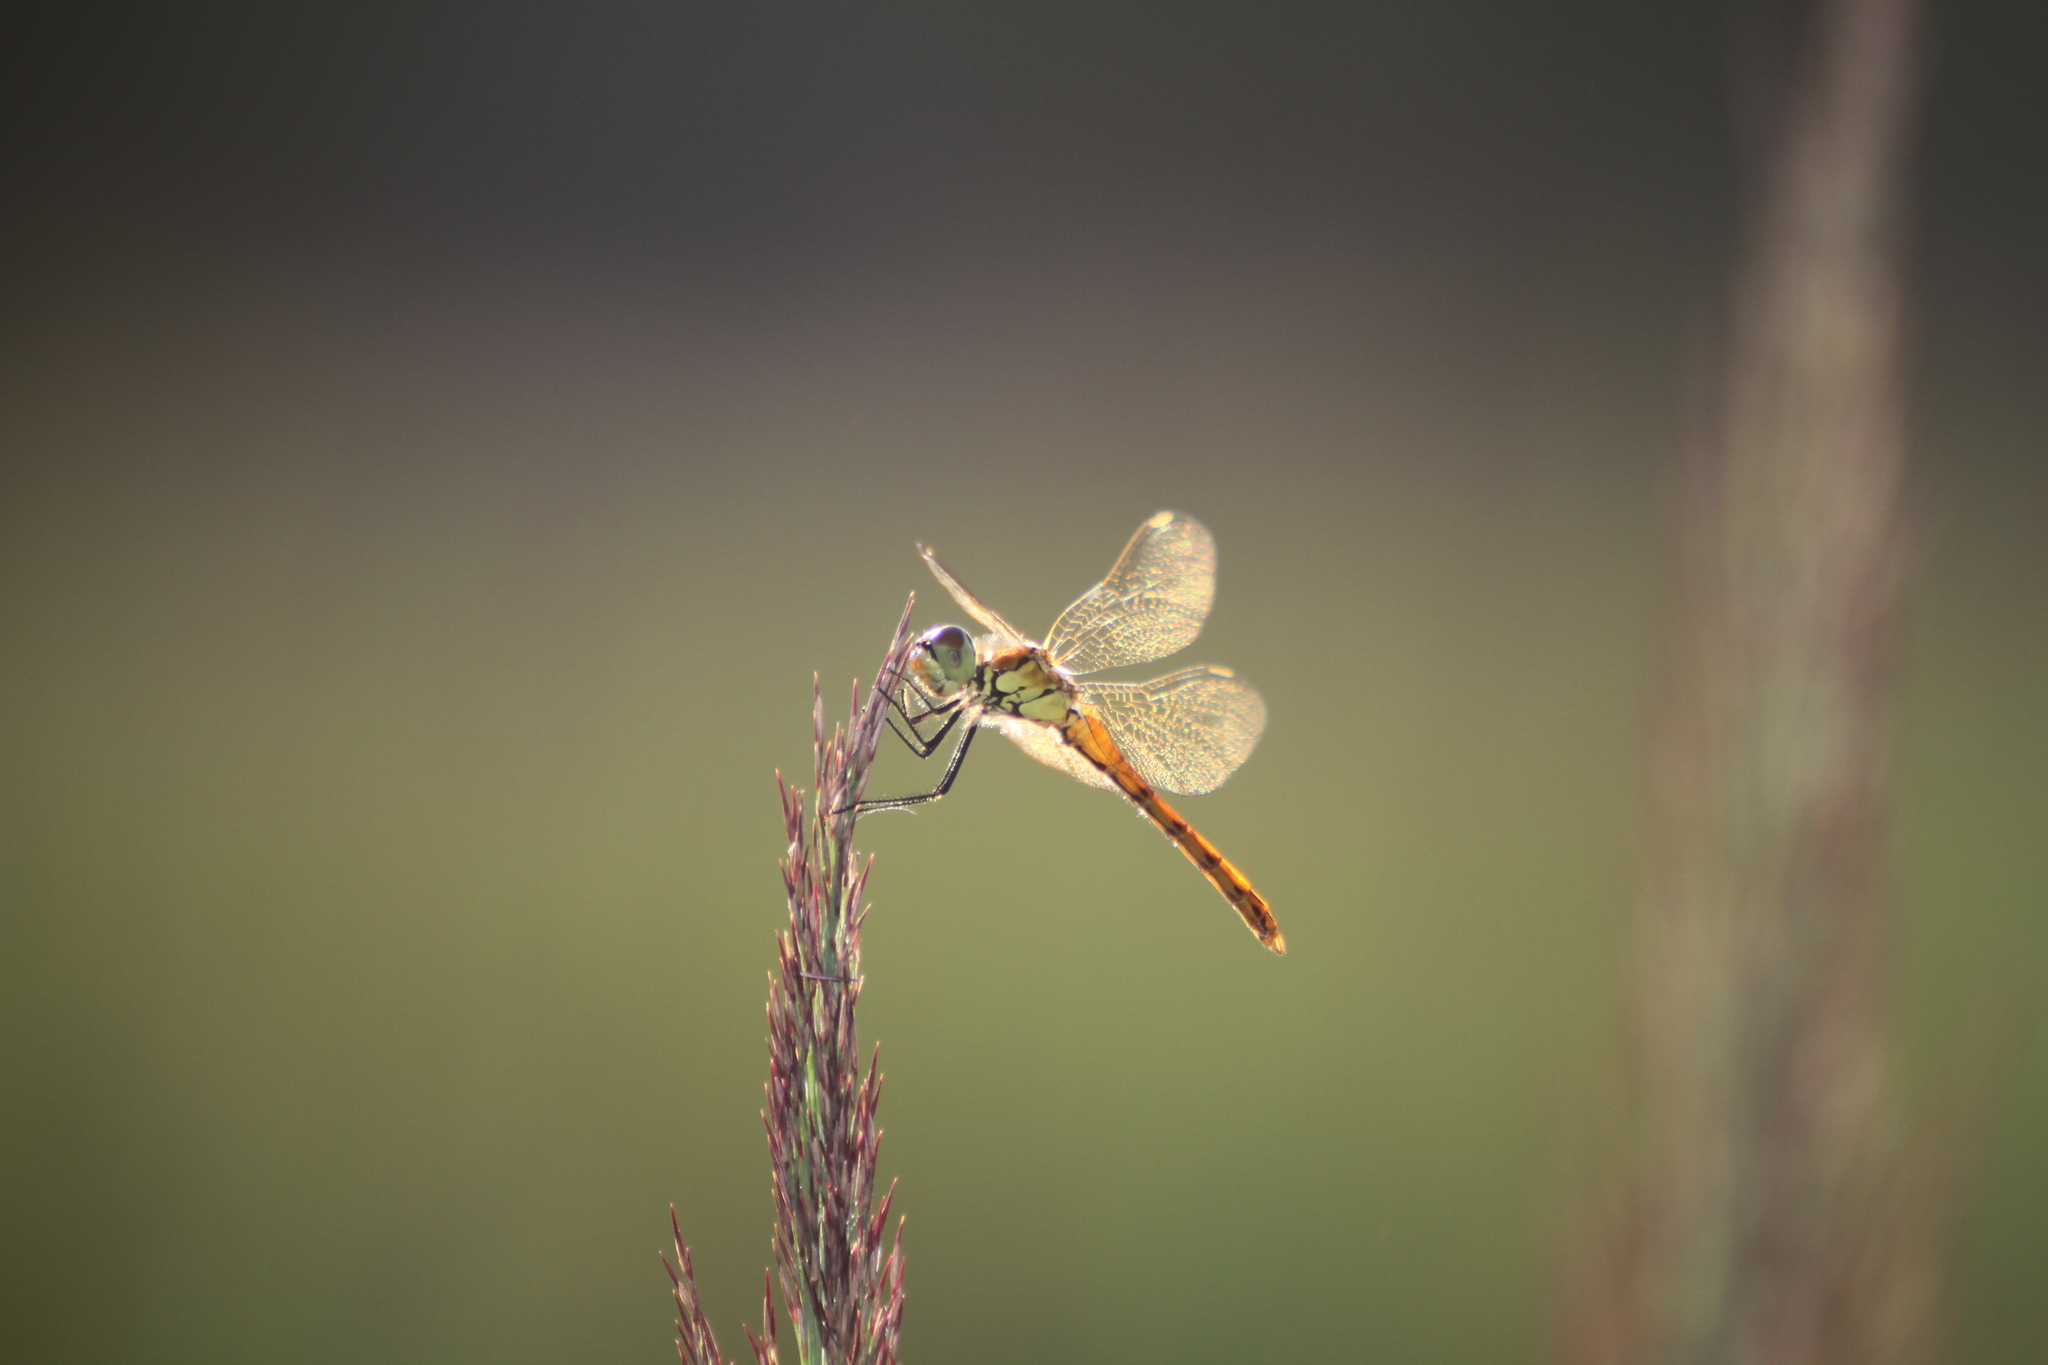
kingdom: Animalia
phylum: Arthropoda
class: Insecta
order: Odonata
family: Libellulidae
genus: Sympetrum
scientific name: Sympetrum depressiusculum
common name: Spotted darter
